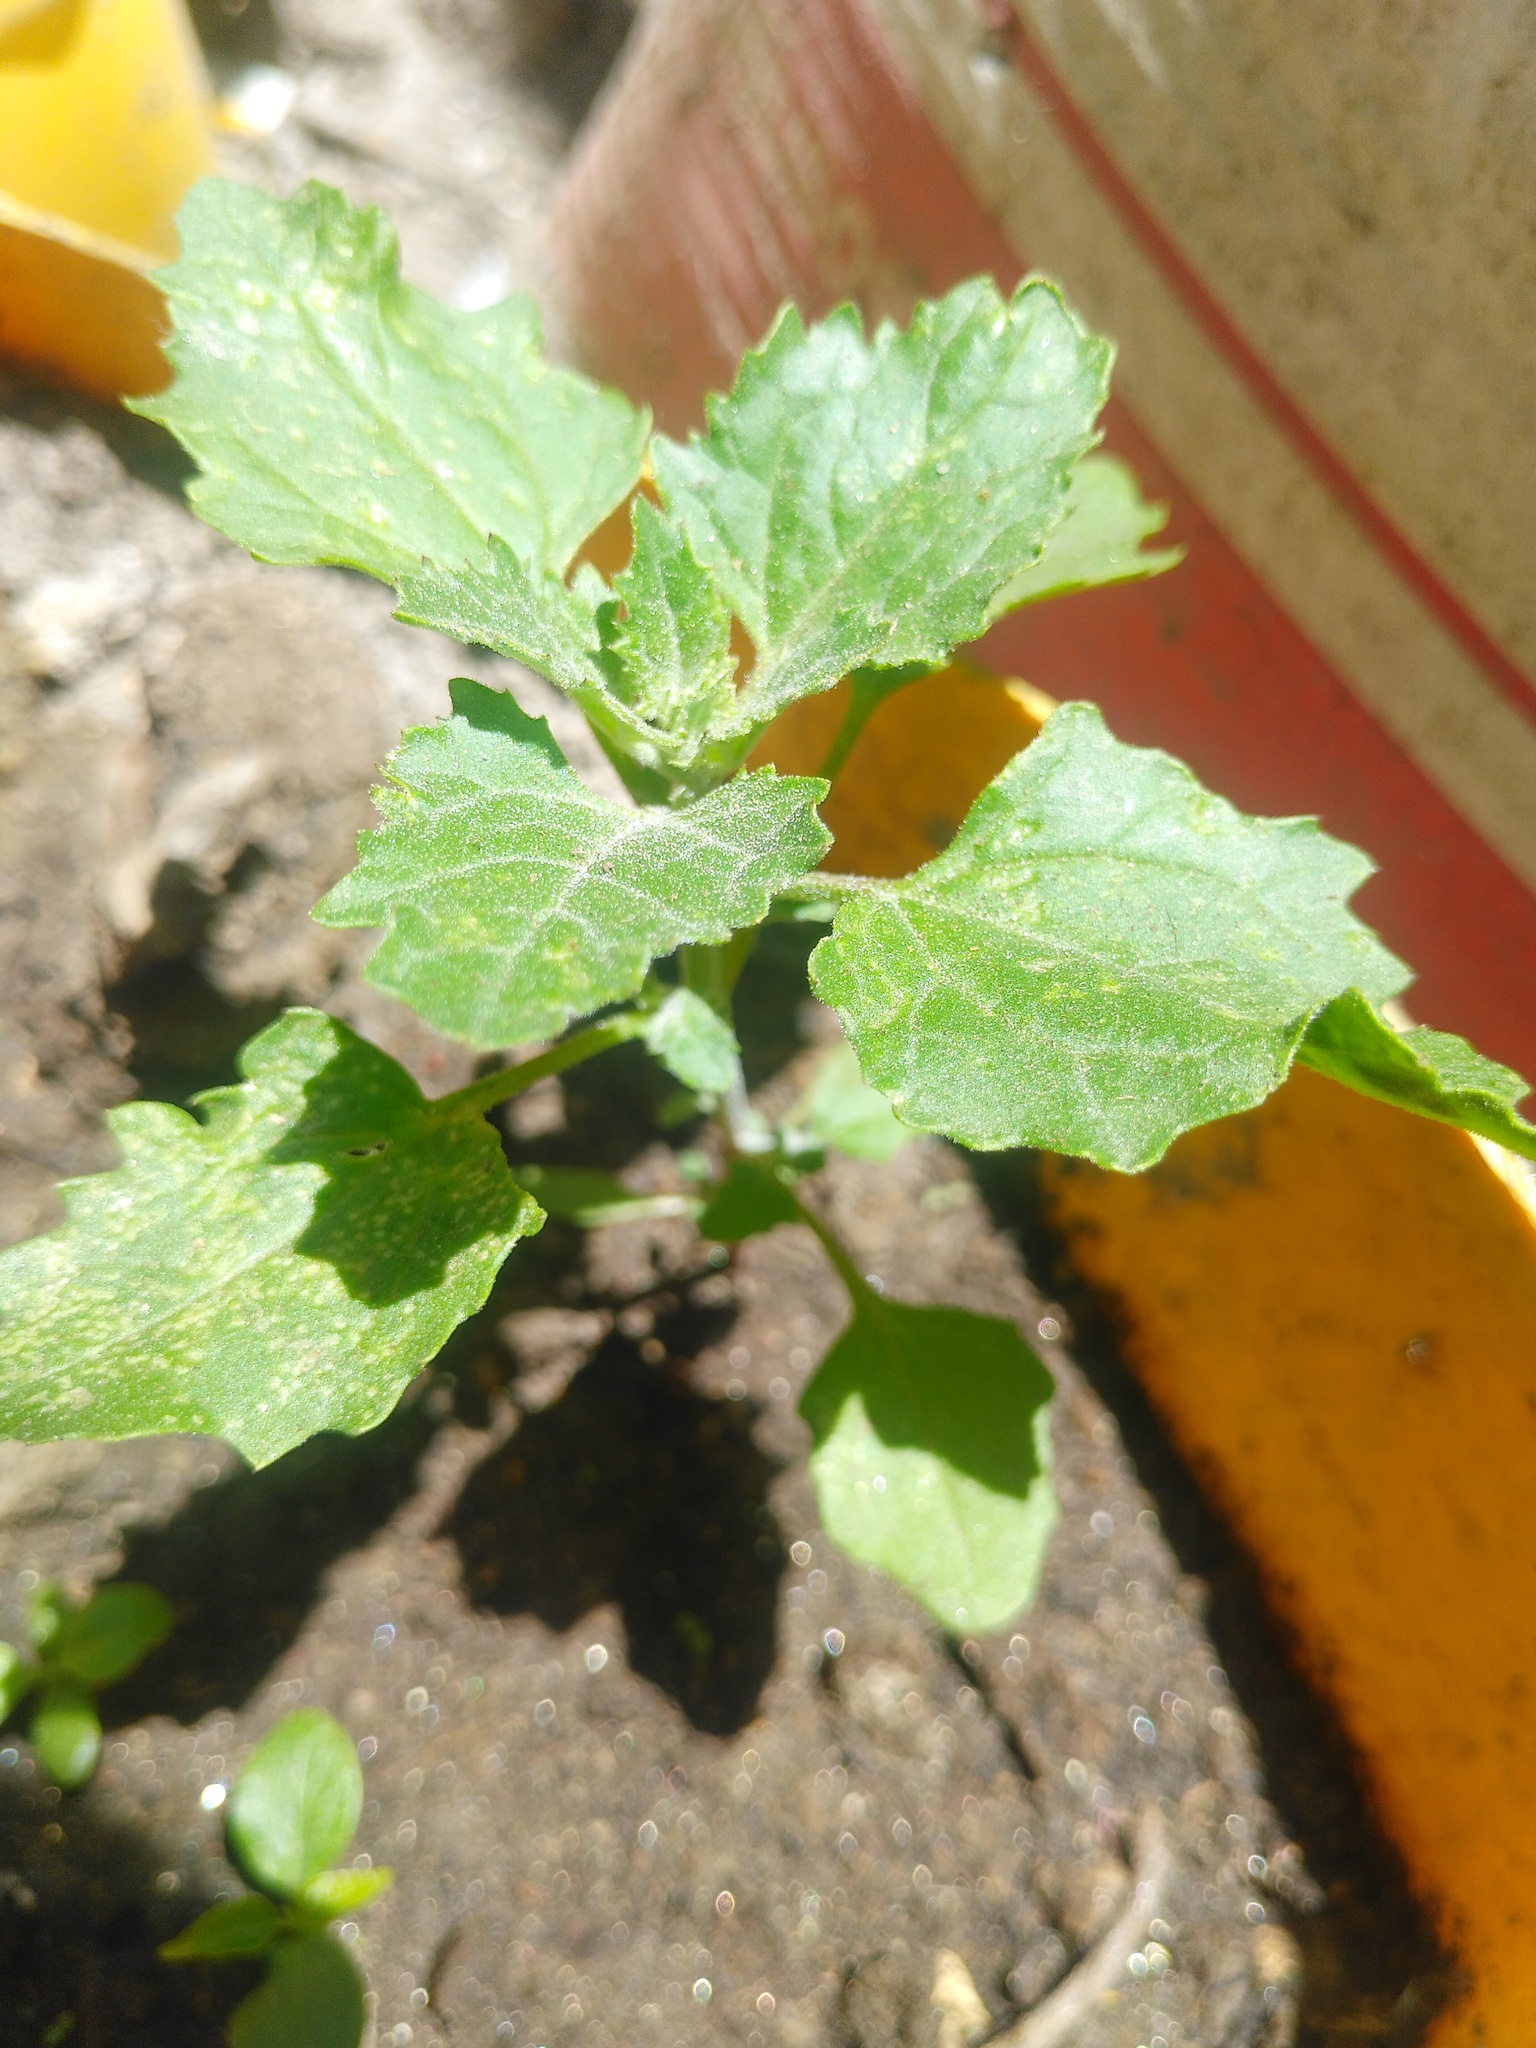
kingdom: Plantae
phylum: Tracheophyta
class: Magnoliopsida
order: Caryophyllales
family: Amaranthaceae
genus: Chenopodiastrum
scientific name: Chenopodiastrum murale
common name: Sowbane
